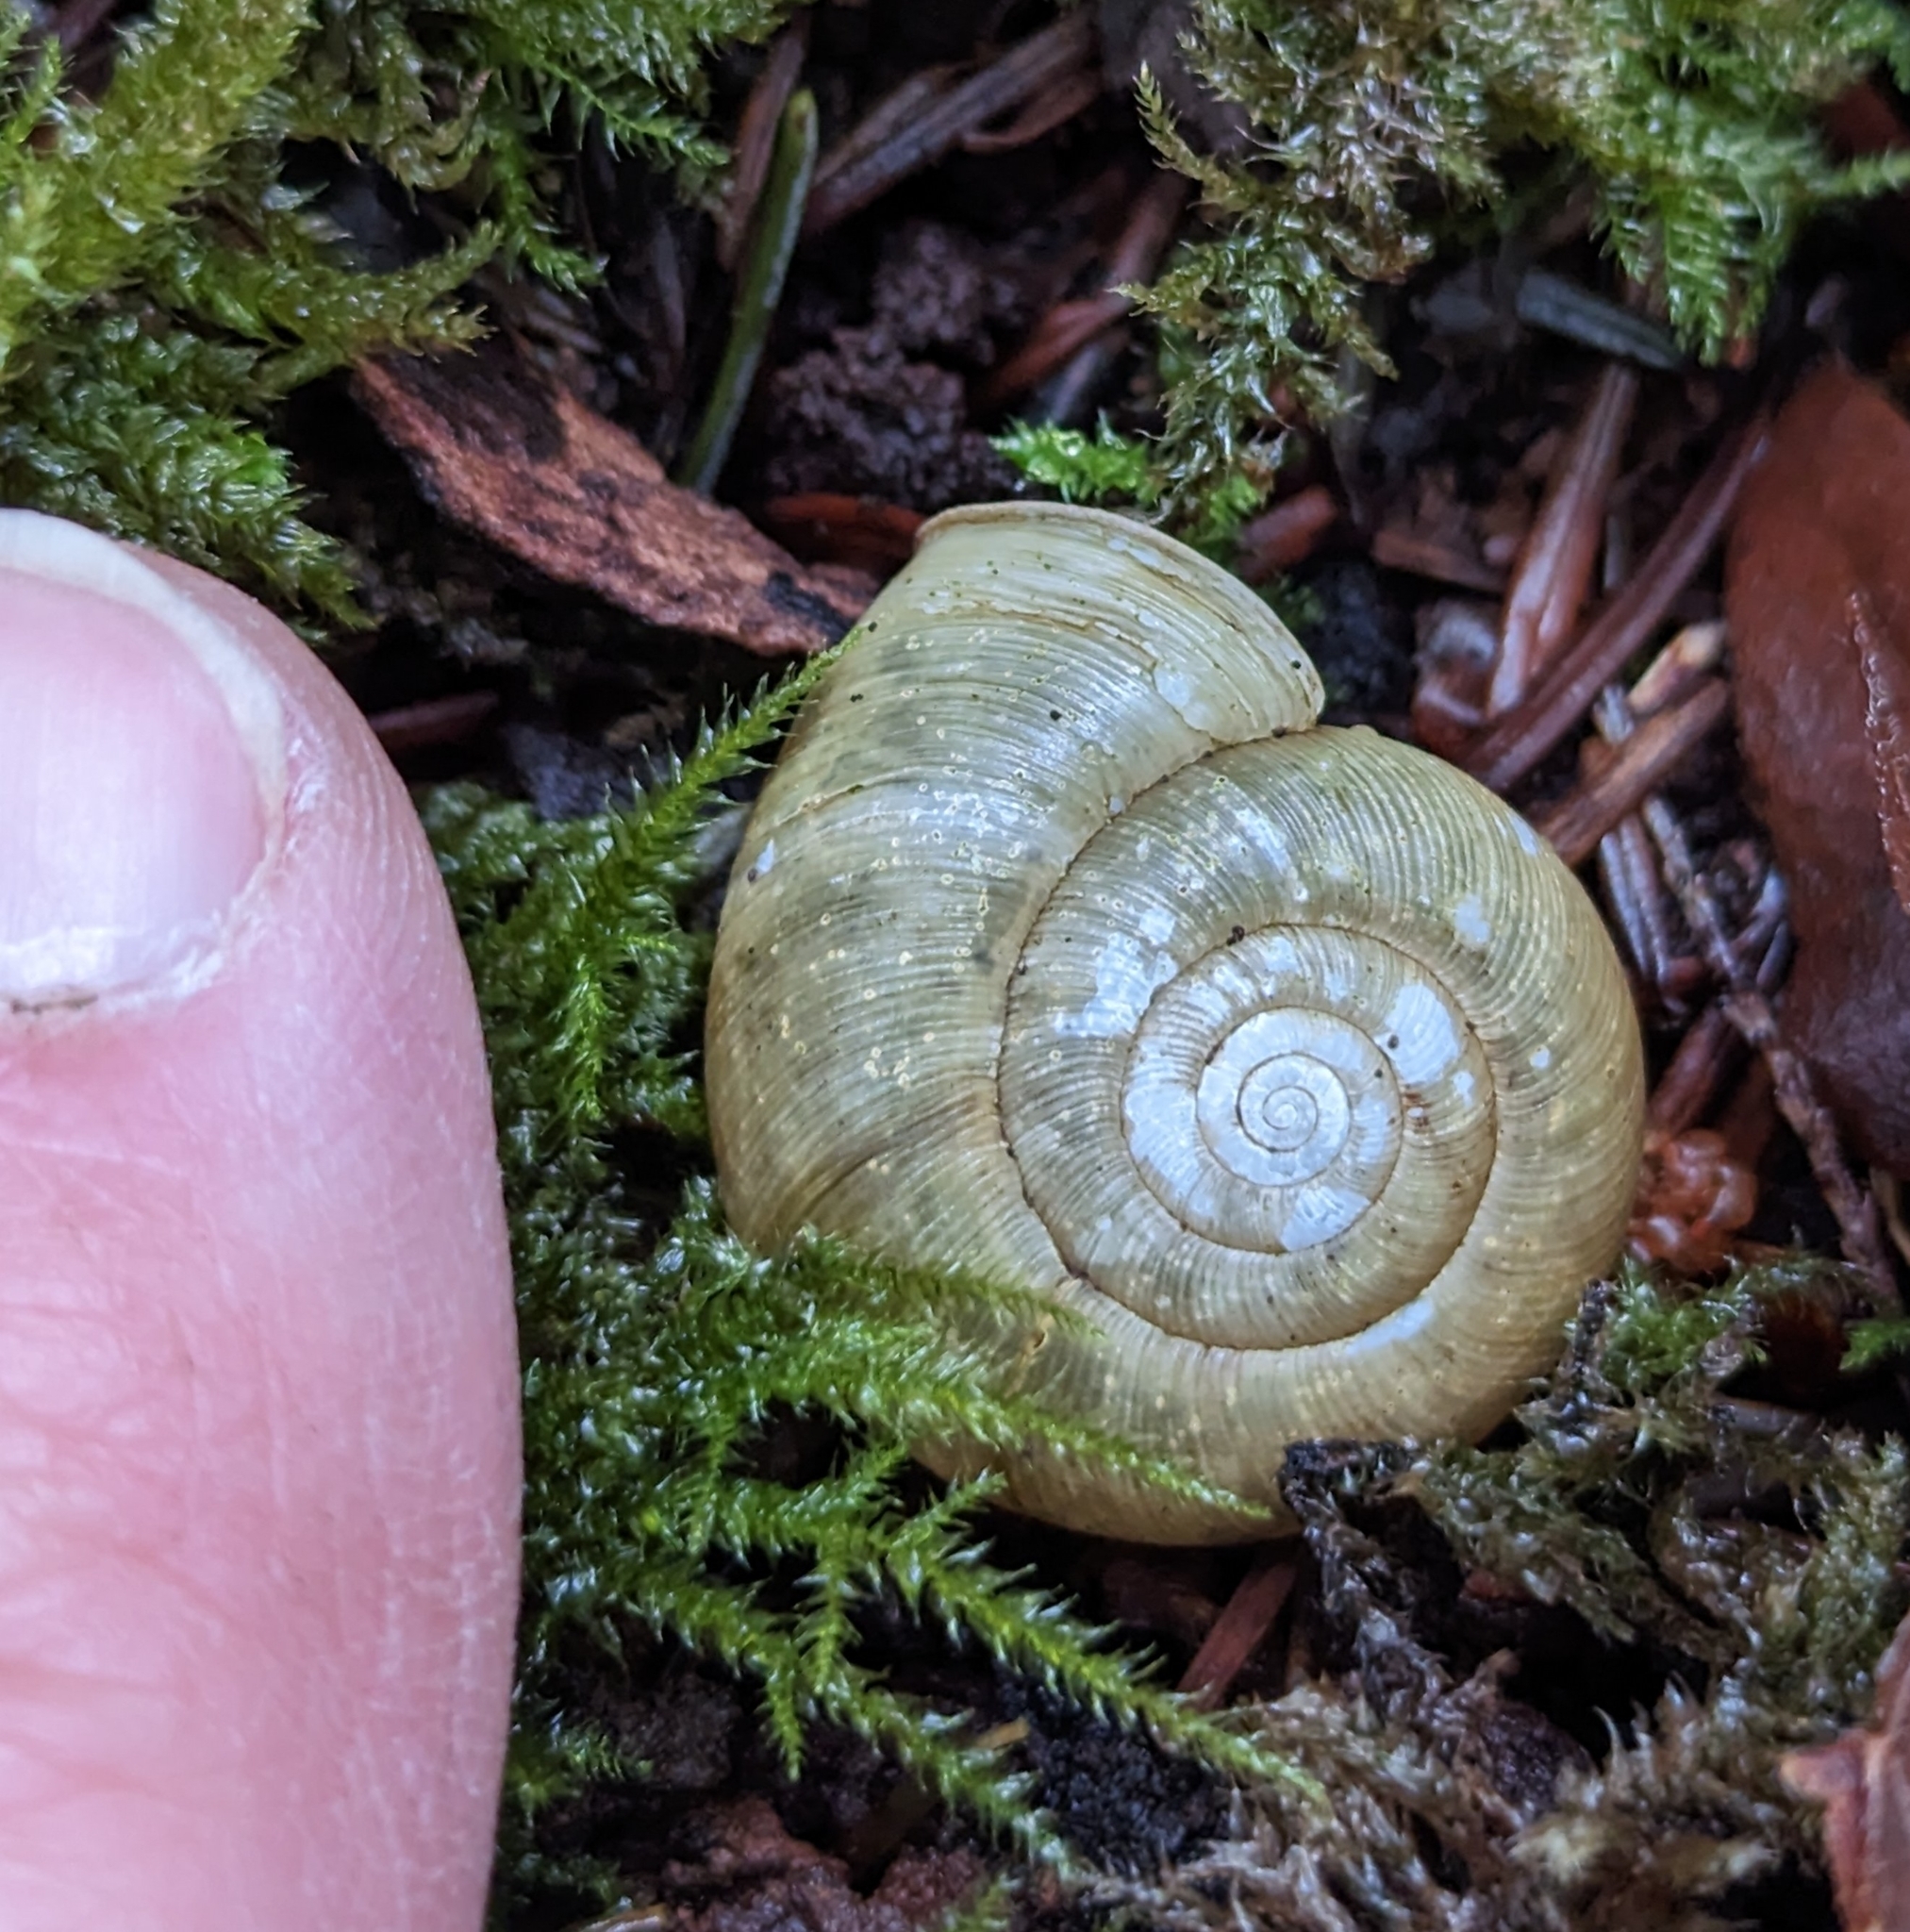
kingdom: Animalia
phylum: Mollusca
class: Gastropoda
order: Stylommatophora
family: Haplotrematidae
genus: Ancotrema
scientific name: Ancotrema sportella
